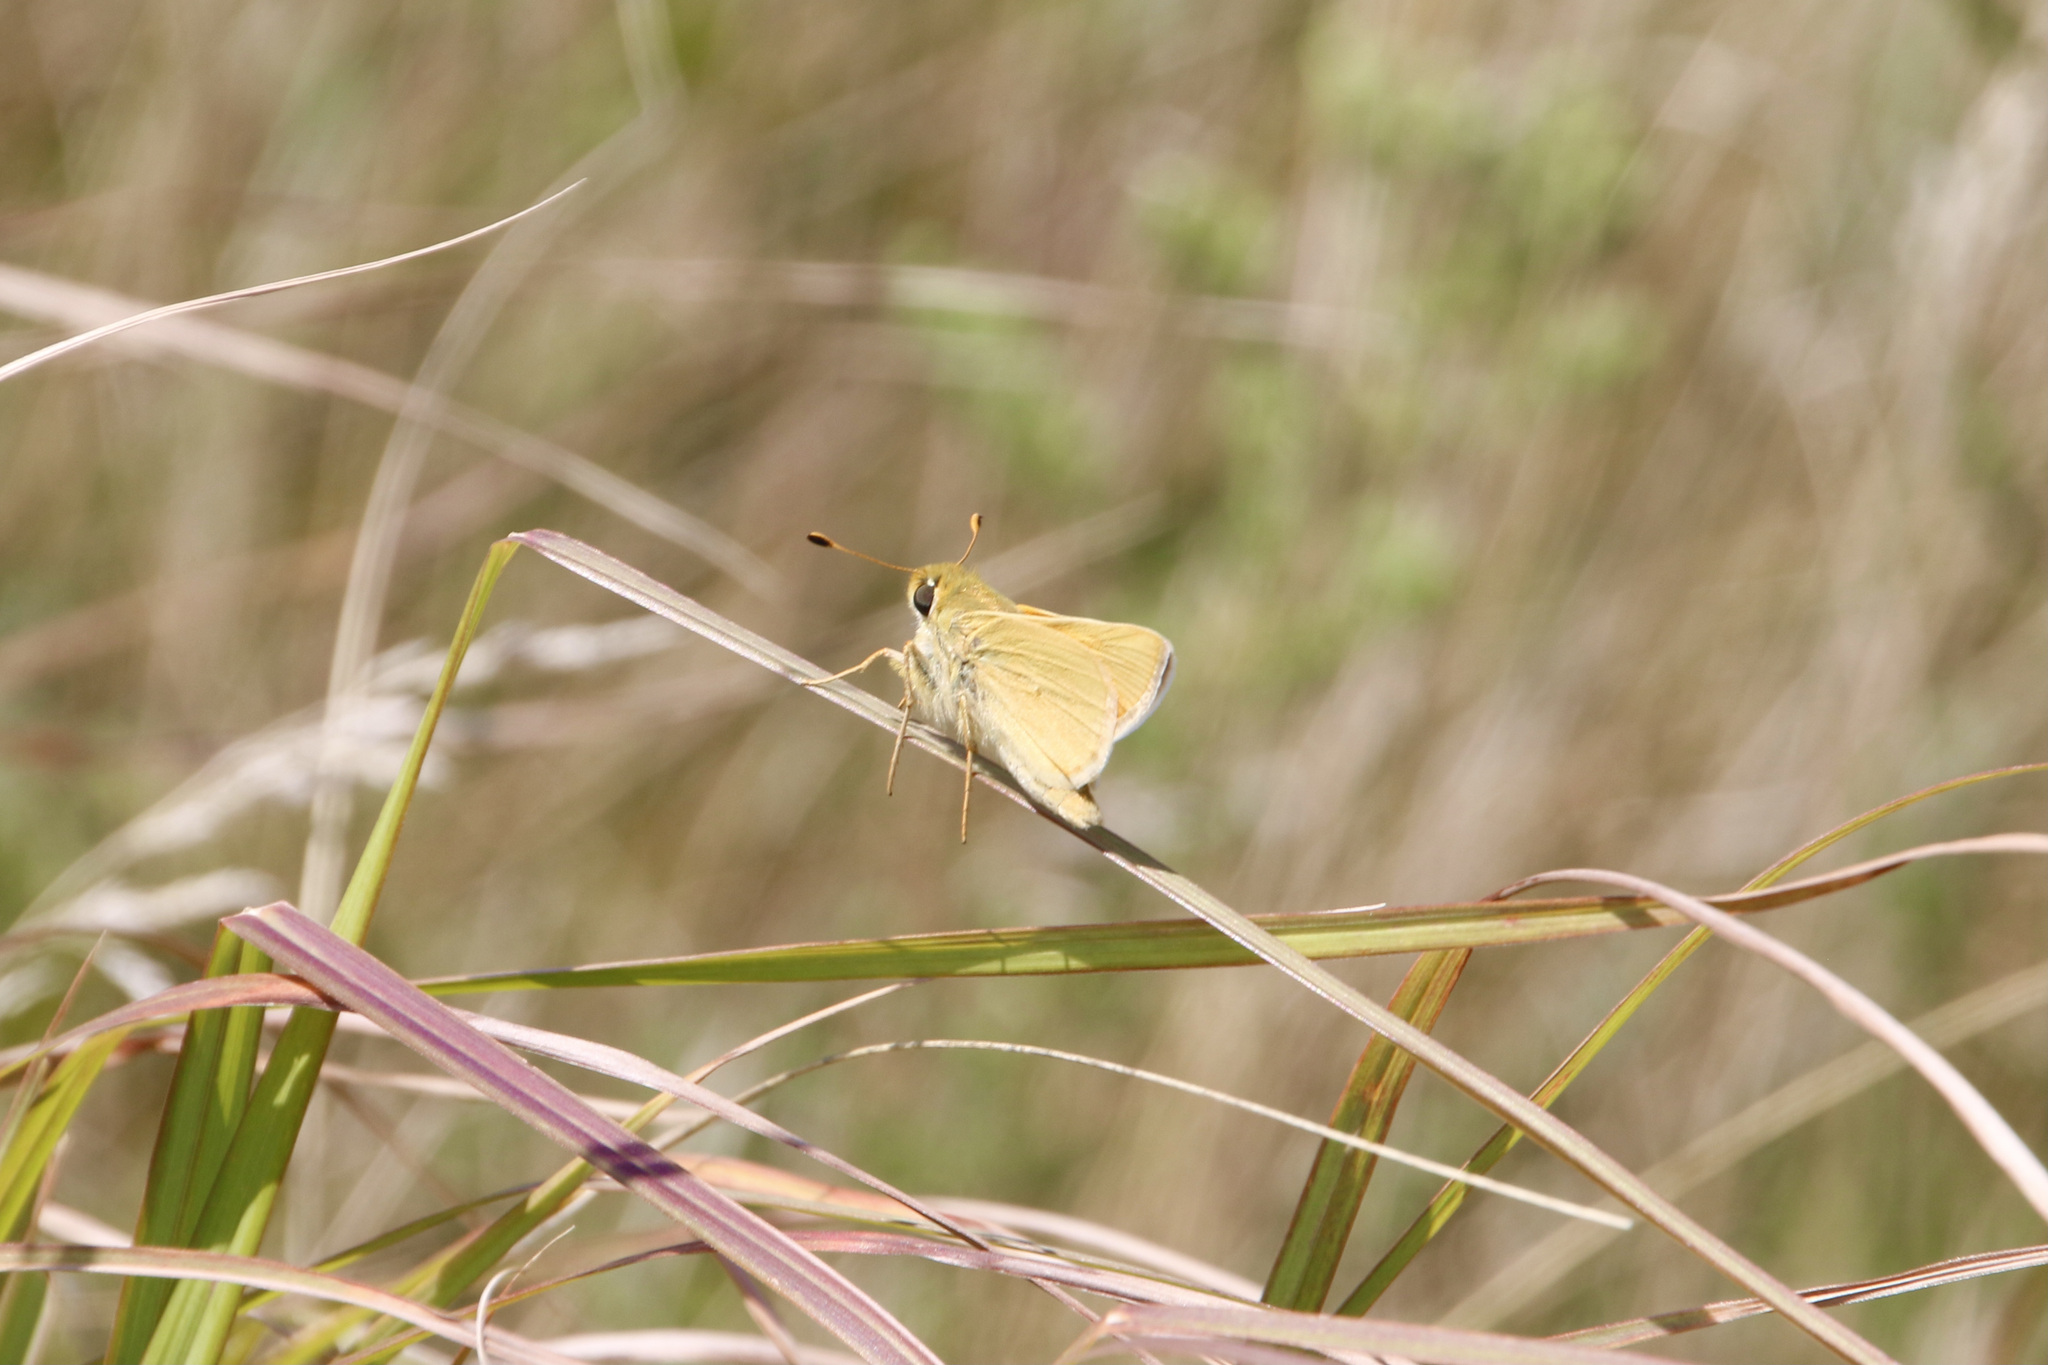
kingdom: Animalia
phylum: Arthropoda
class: Insecta
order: Lepidoptera
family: Hesperiidae
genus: Hesperia
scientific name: Hesperia leonardus
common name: Leonard's skipper
